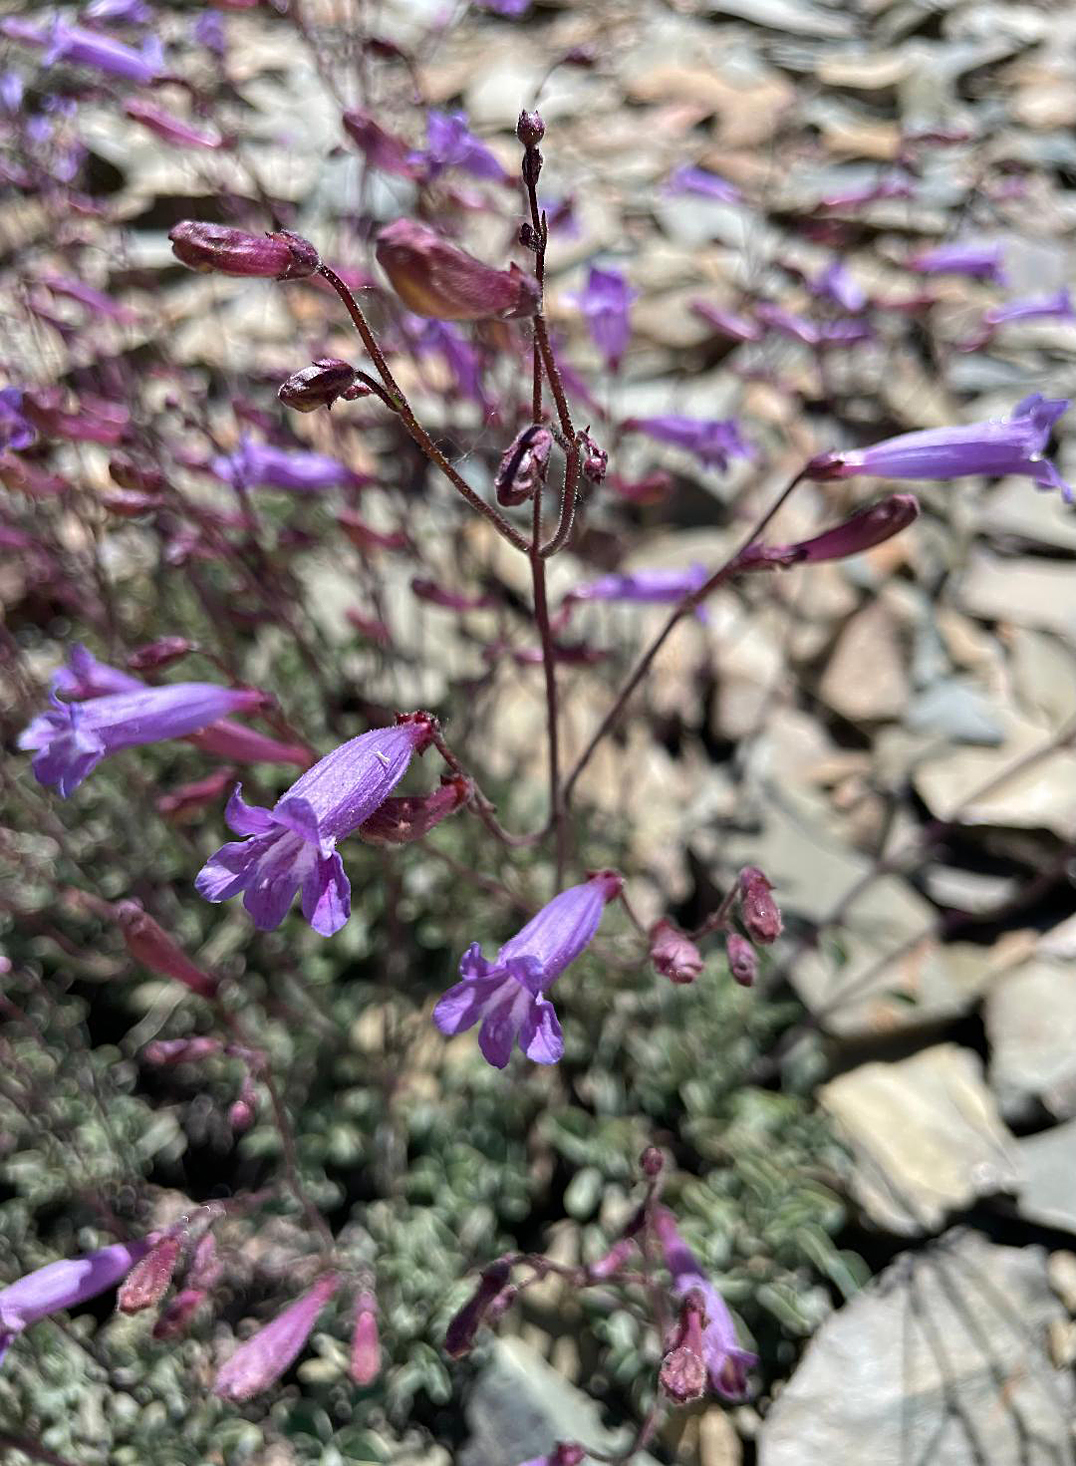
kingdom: Plantae
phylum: Tracheophyta
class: Magnoliopsida
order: Lamiales
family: Plantaginaceae
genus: Penstemon
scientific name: Penstemon scapoides
